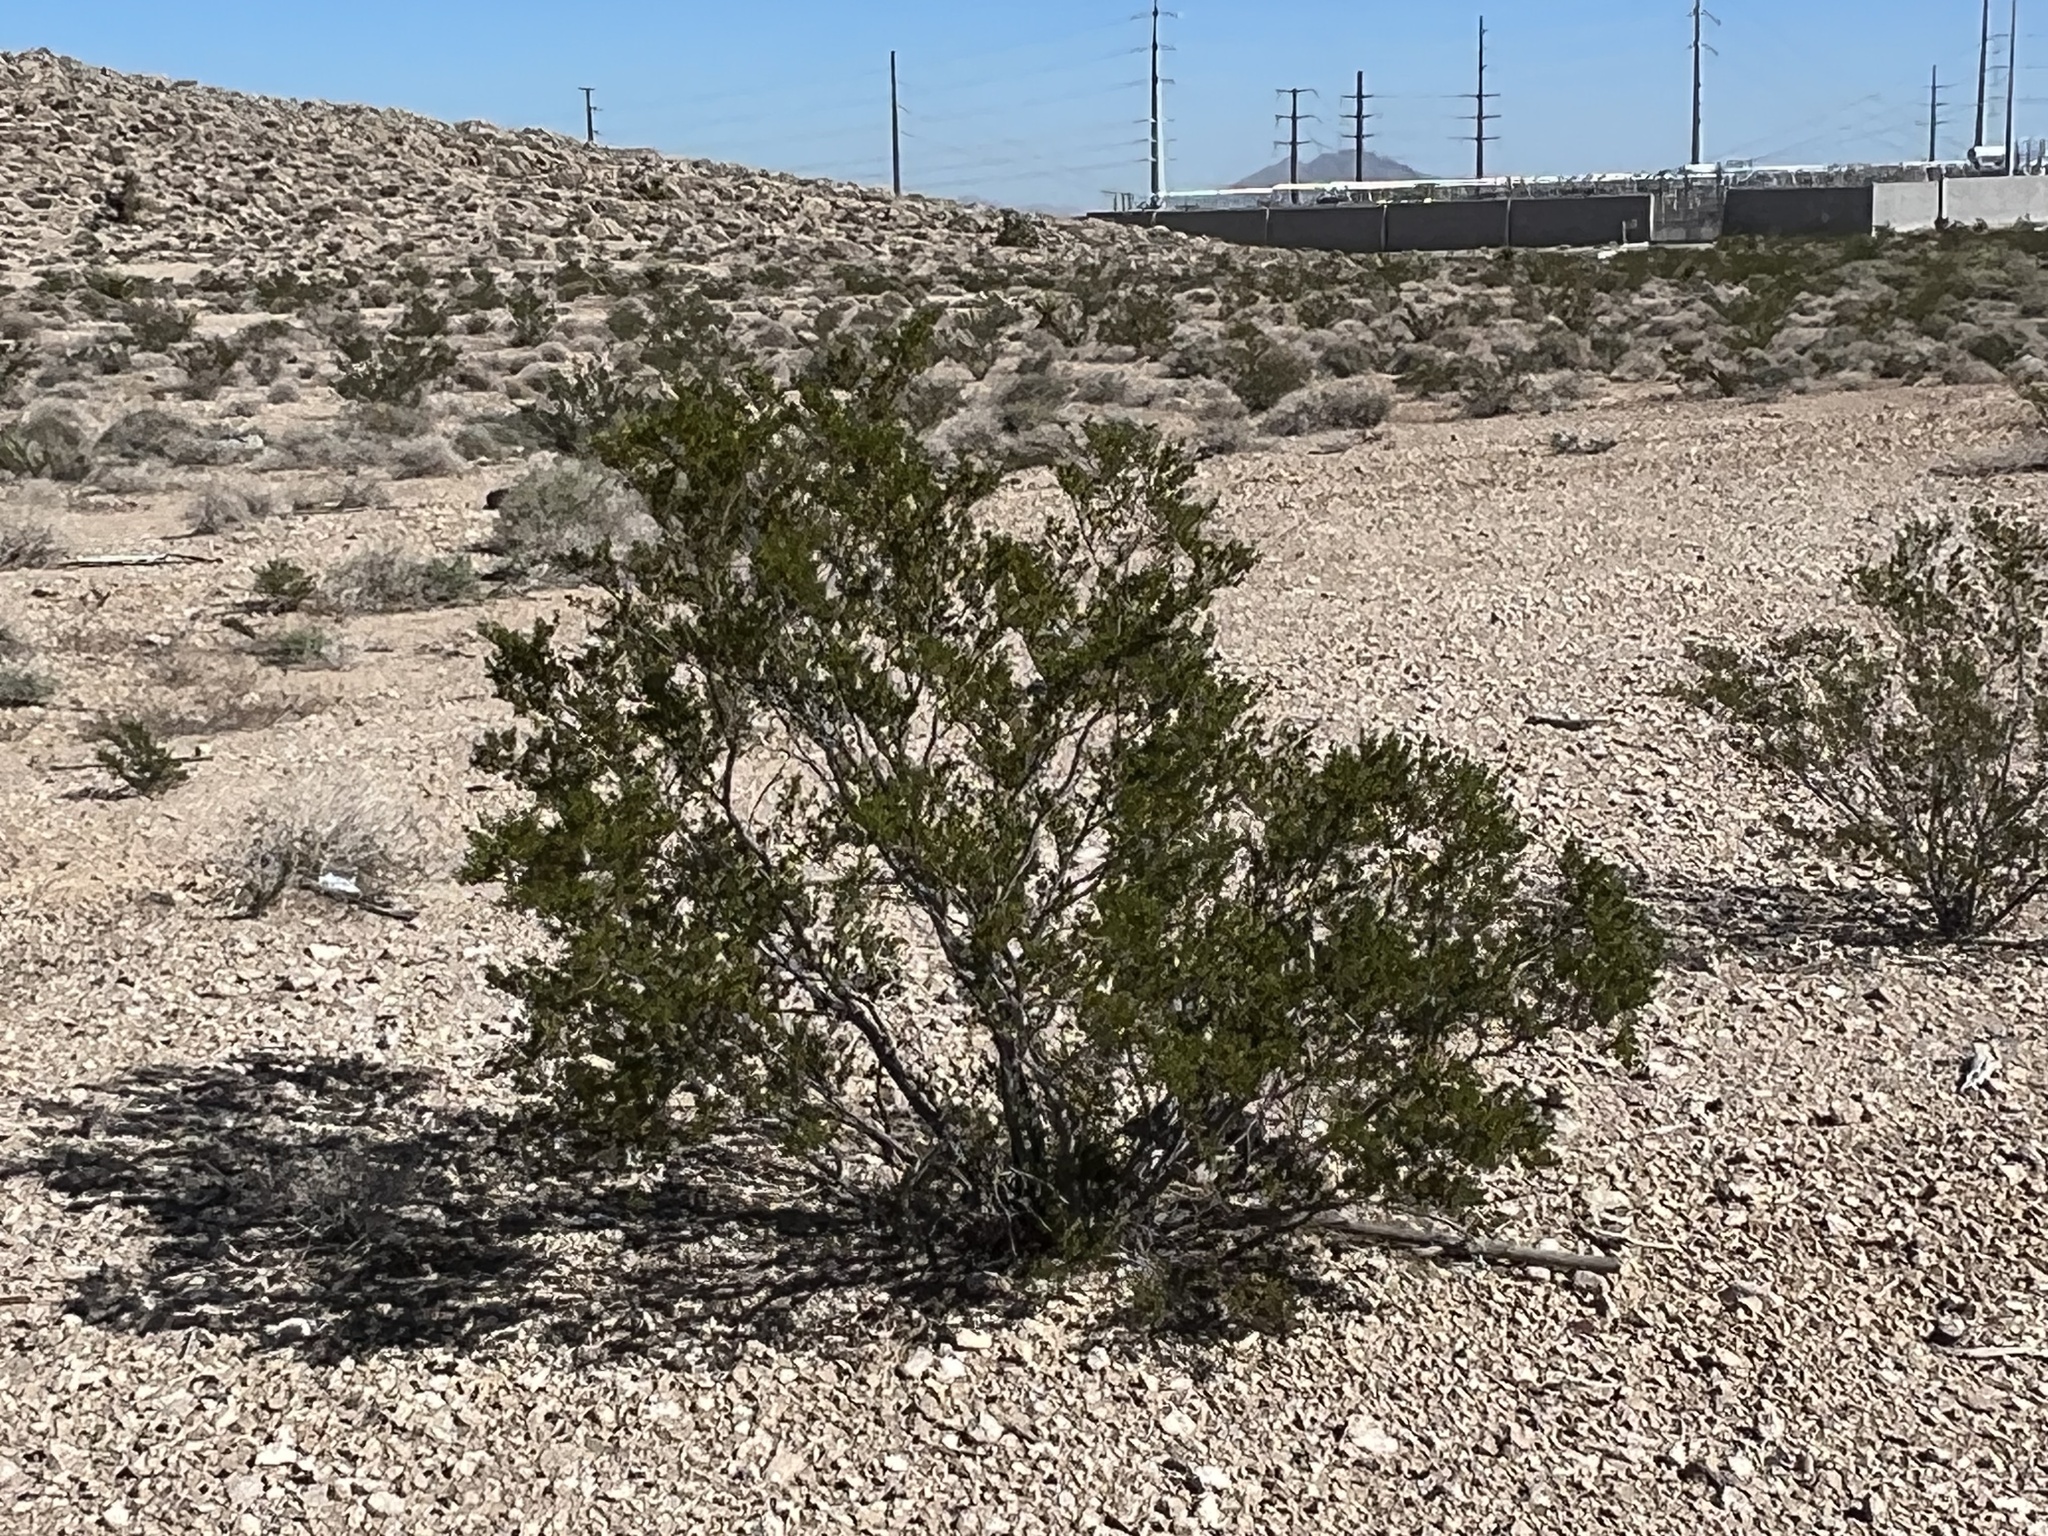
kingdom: Plantae
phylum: Tracheophyta
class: Magnoliopsida
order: Zygophyllales
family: Zygophyllaceae
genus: Larrea
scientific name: Larrea tridentata
